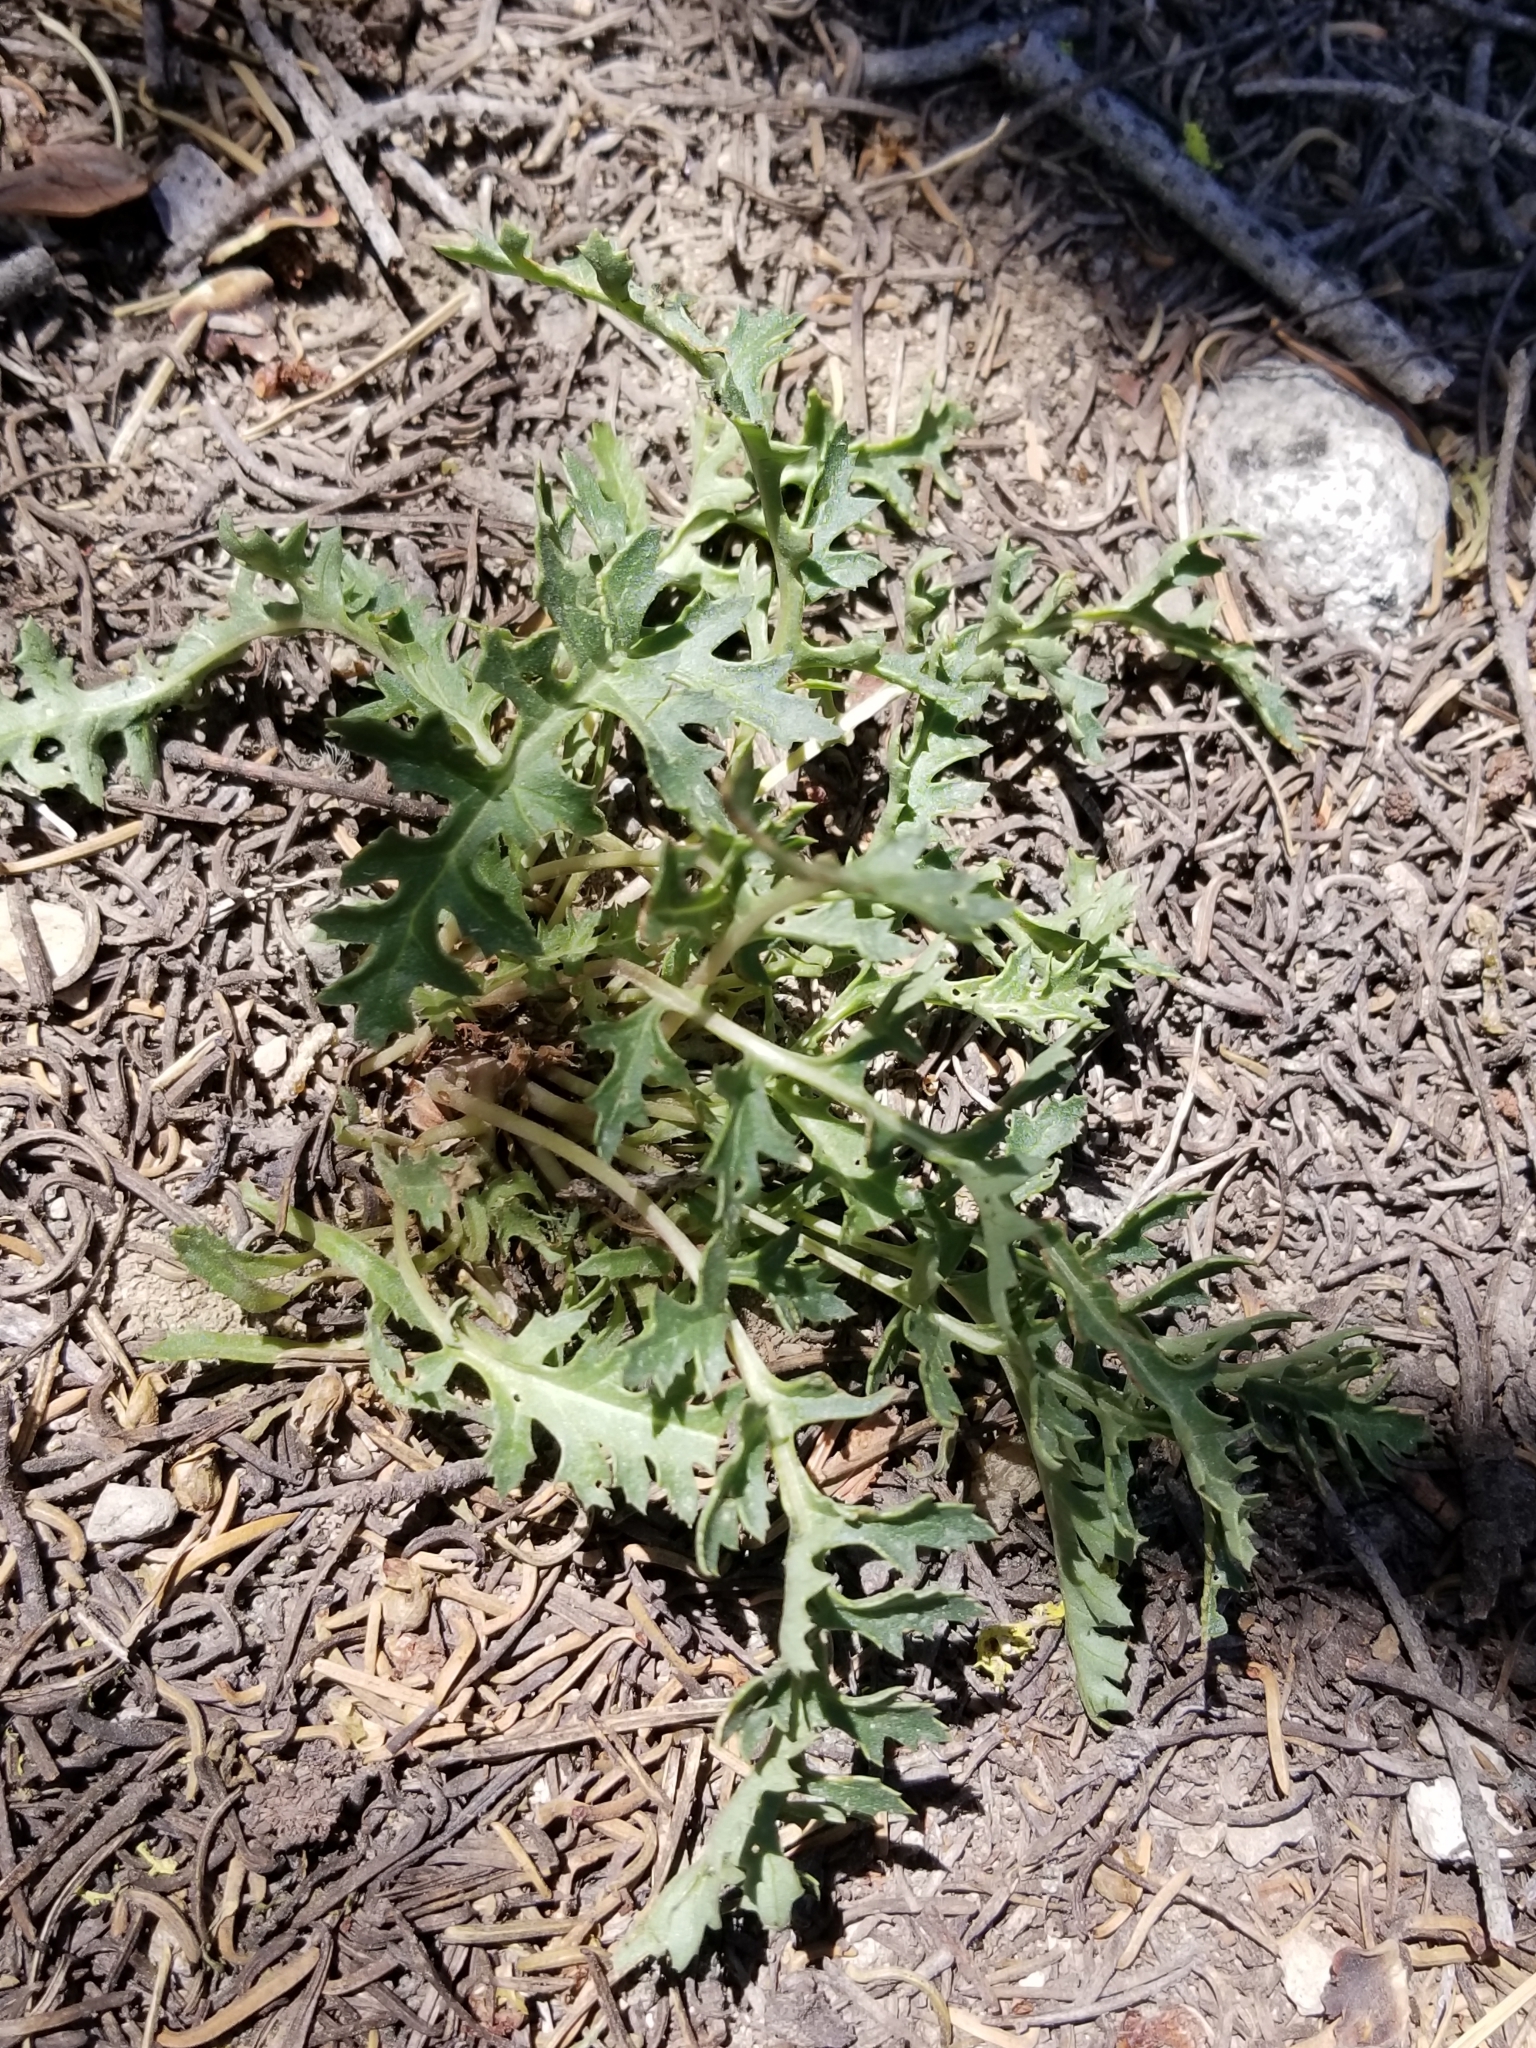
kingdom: Plantae
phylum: Tracheophyta
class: Magnoliopsida
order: Lamiales
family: Orobanchaceae
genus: Pedicularis
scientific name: Pedicularis semibarbata
